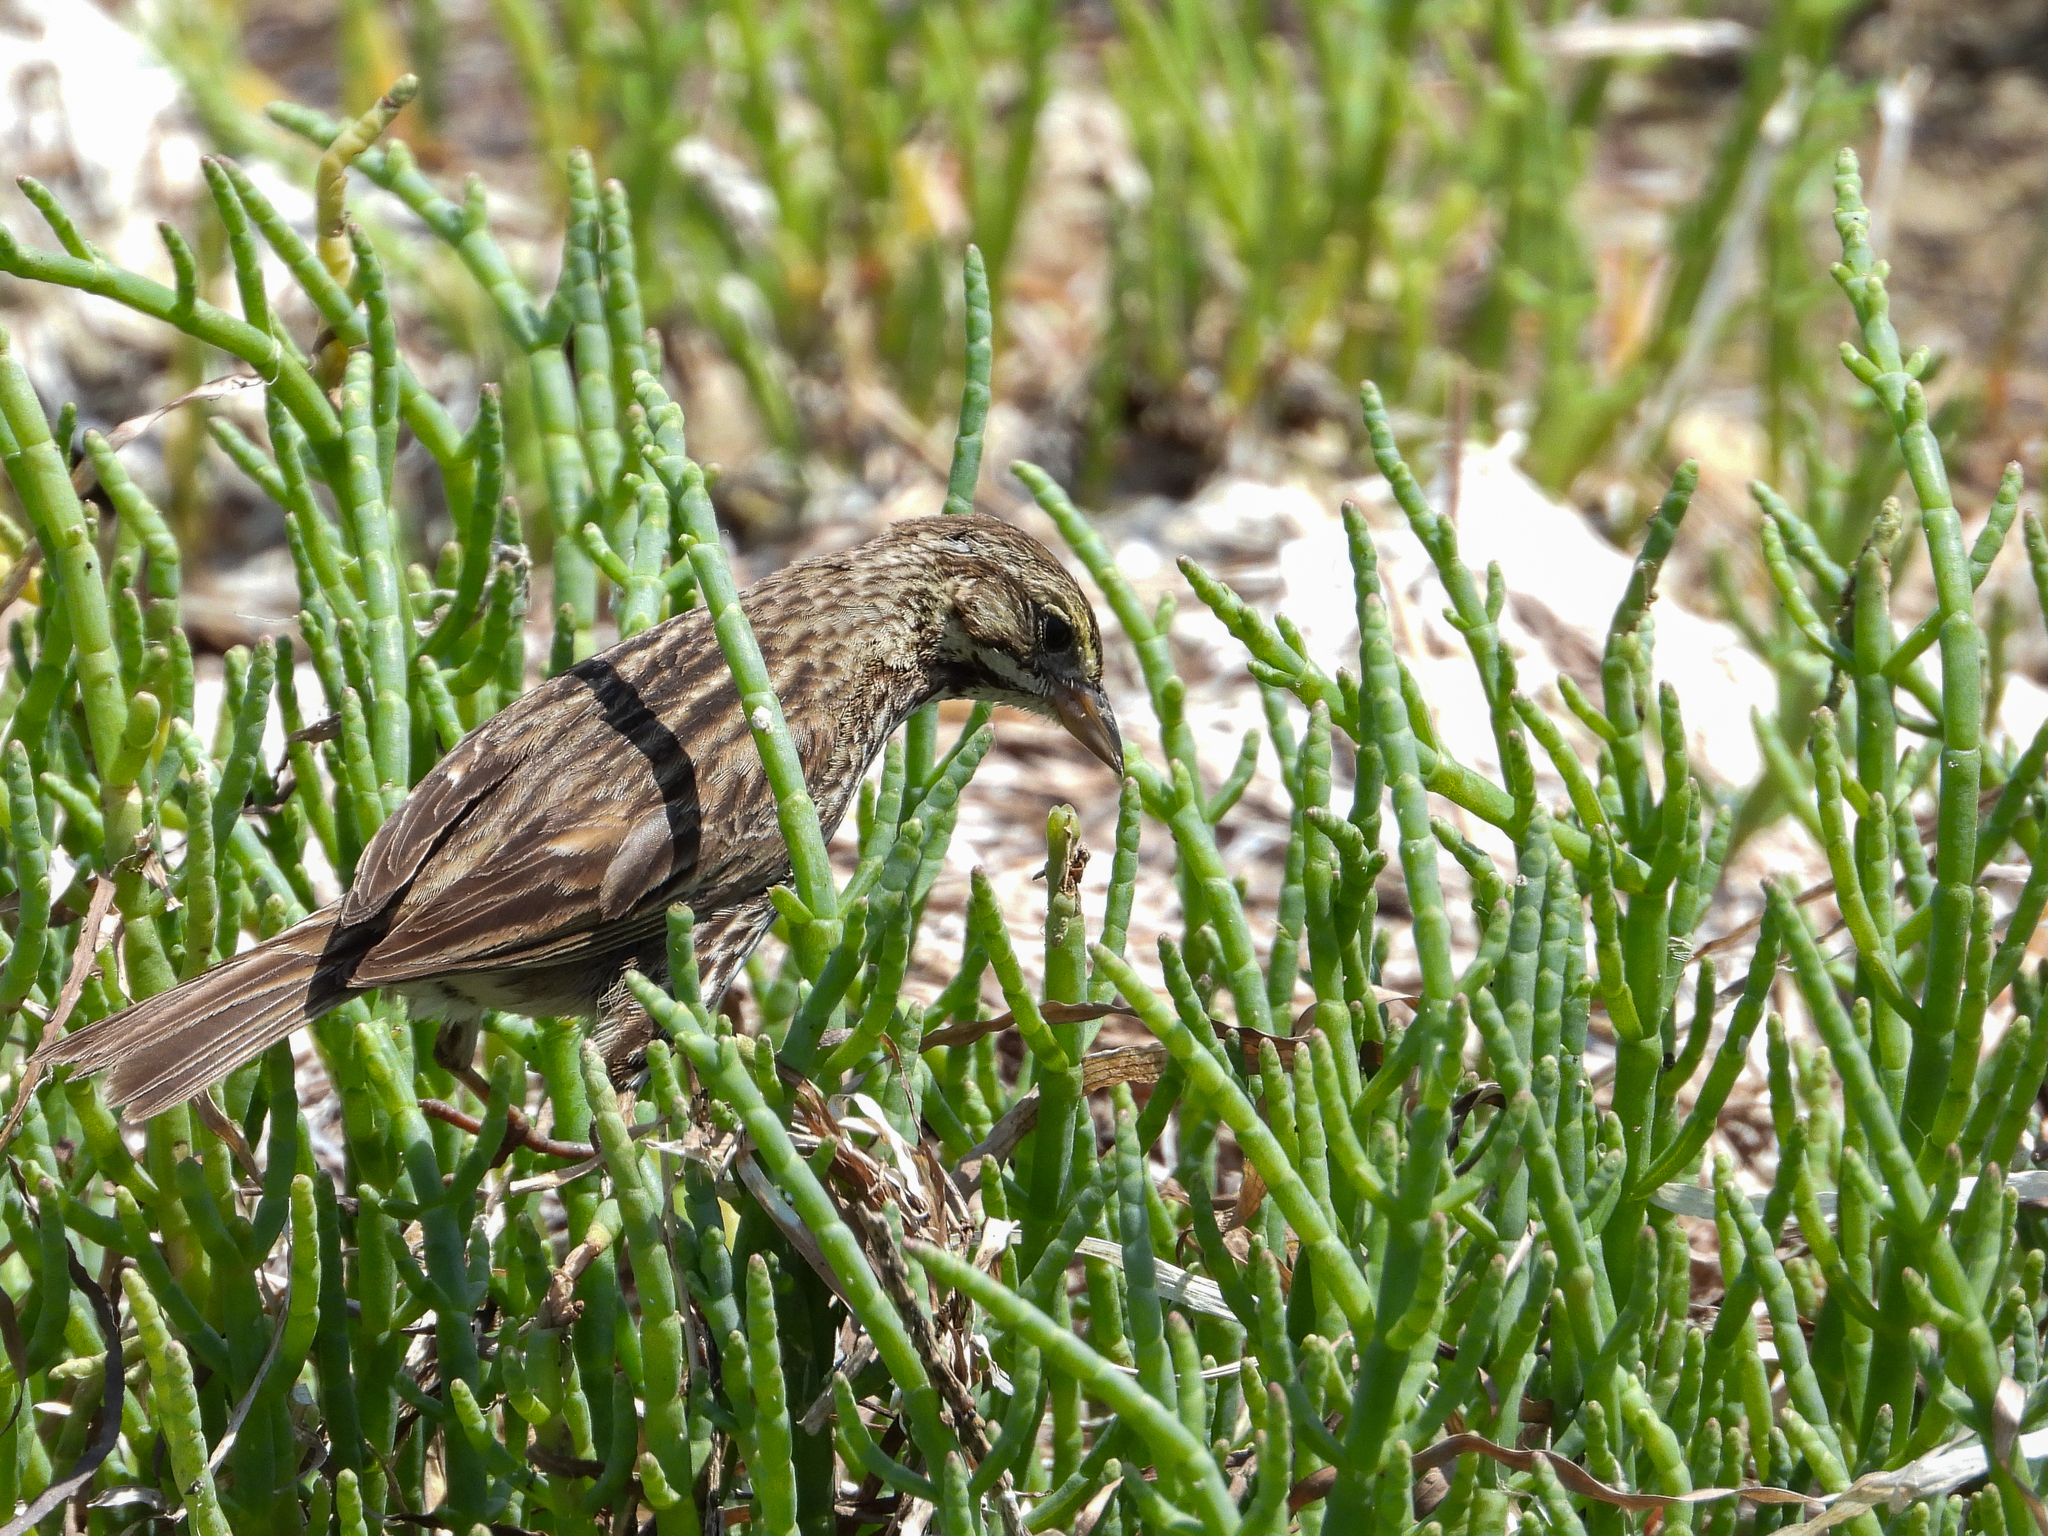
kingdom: Animalia
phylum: Chordata
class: Aves
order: Passeriformes
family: Passerellidae
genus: Passerculus
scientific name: Passerculus sandwichensis
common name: Savannah sparrow
